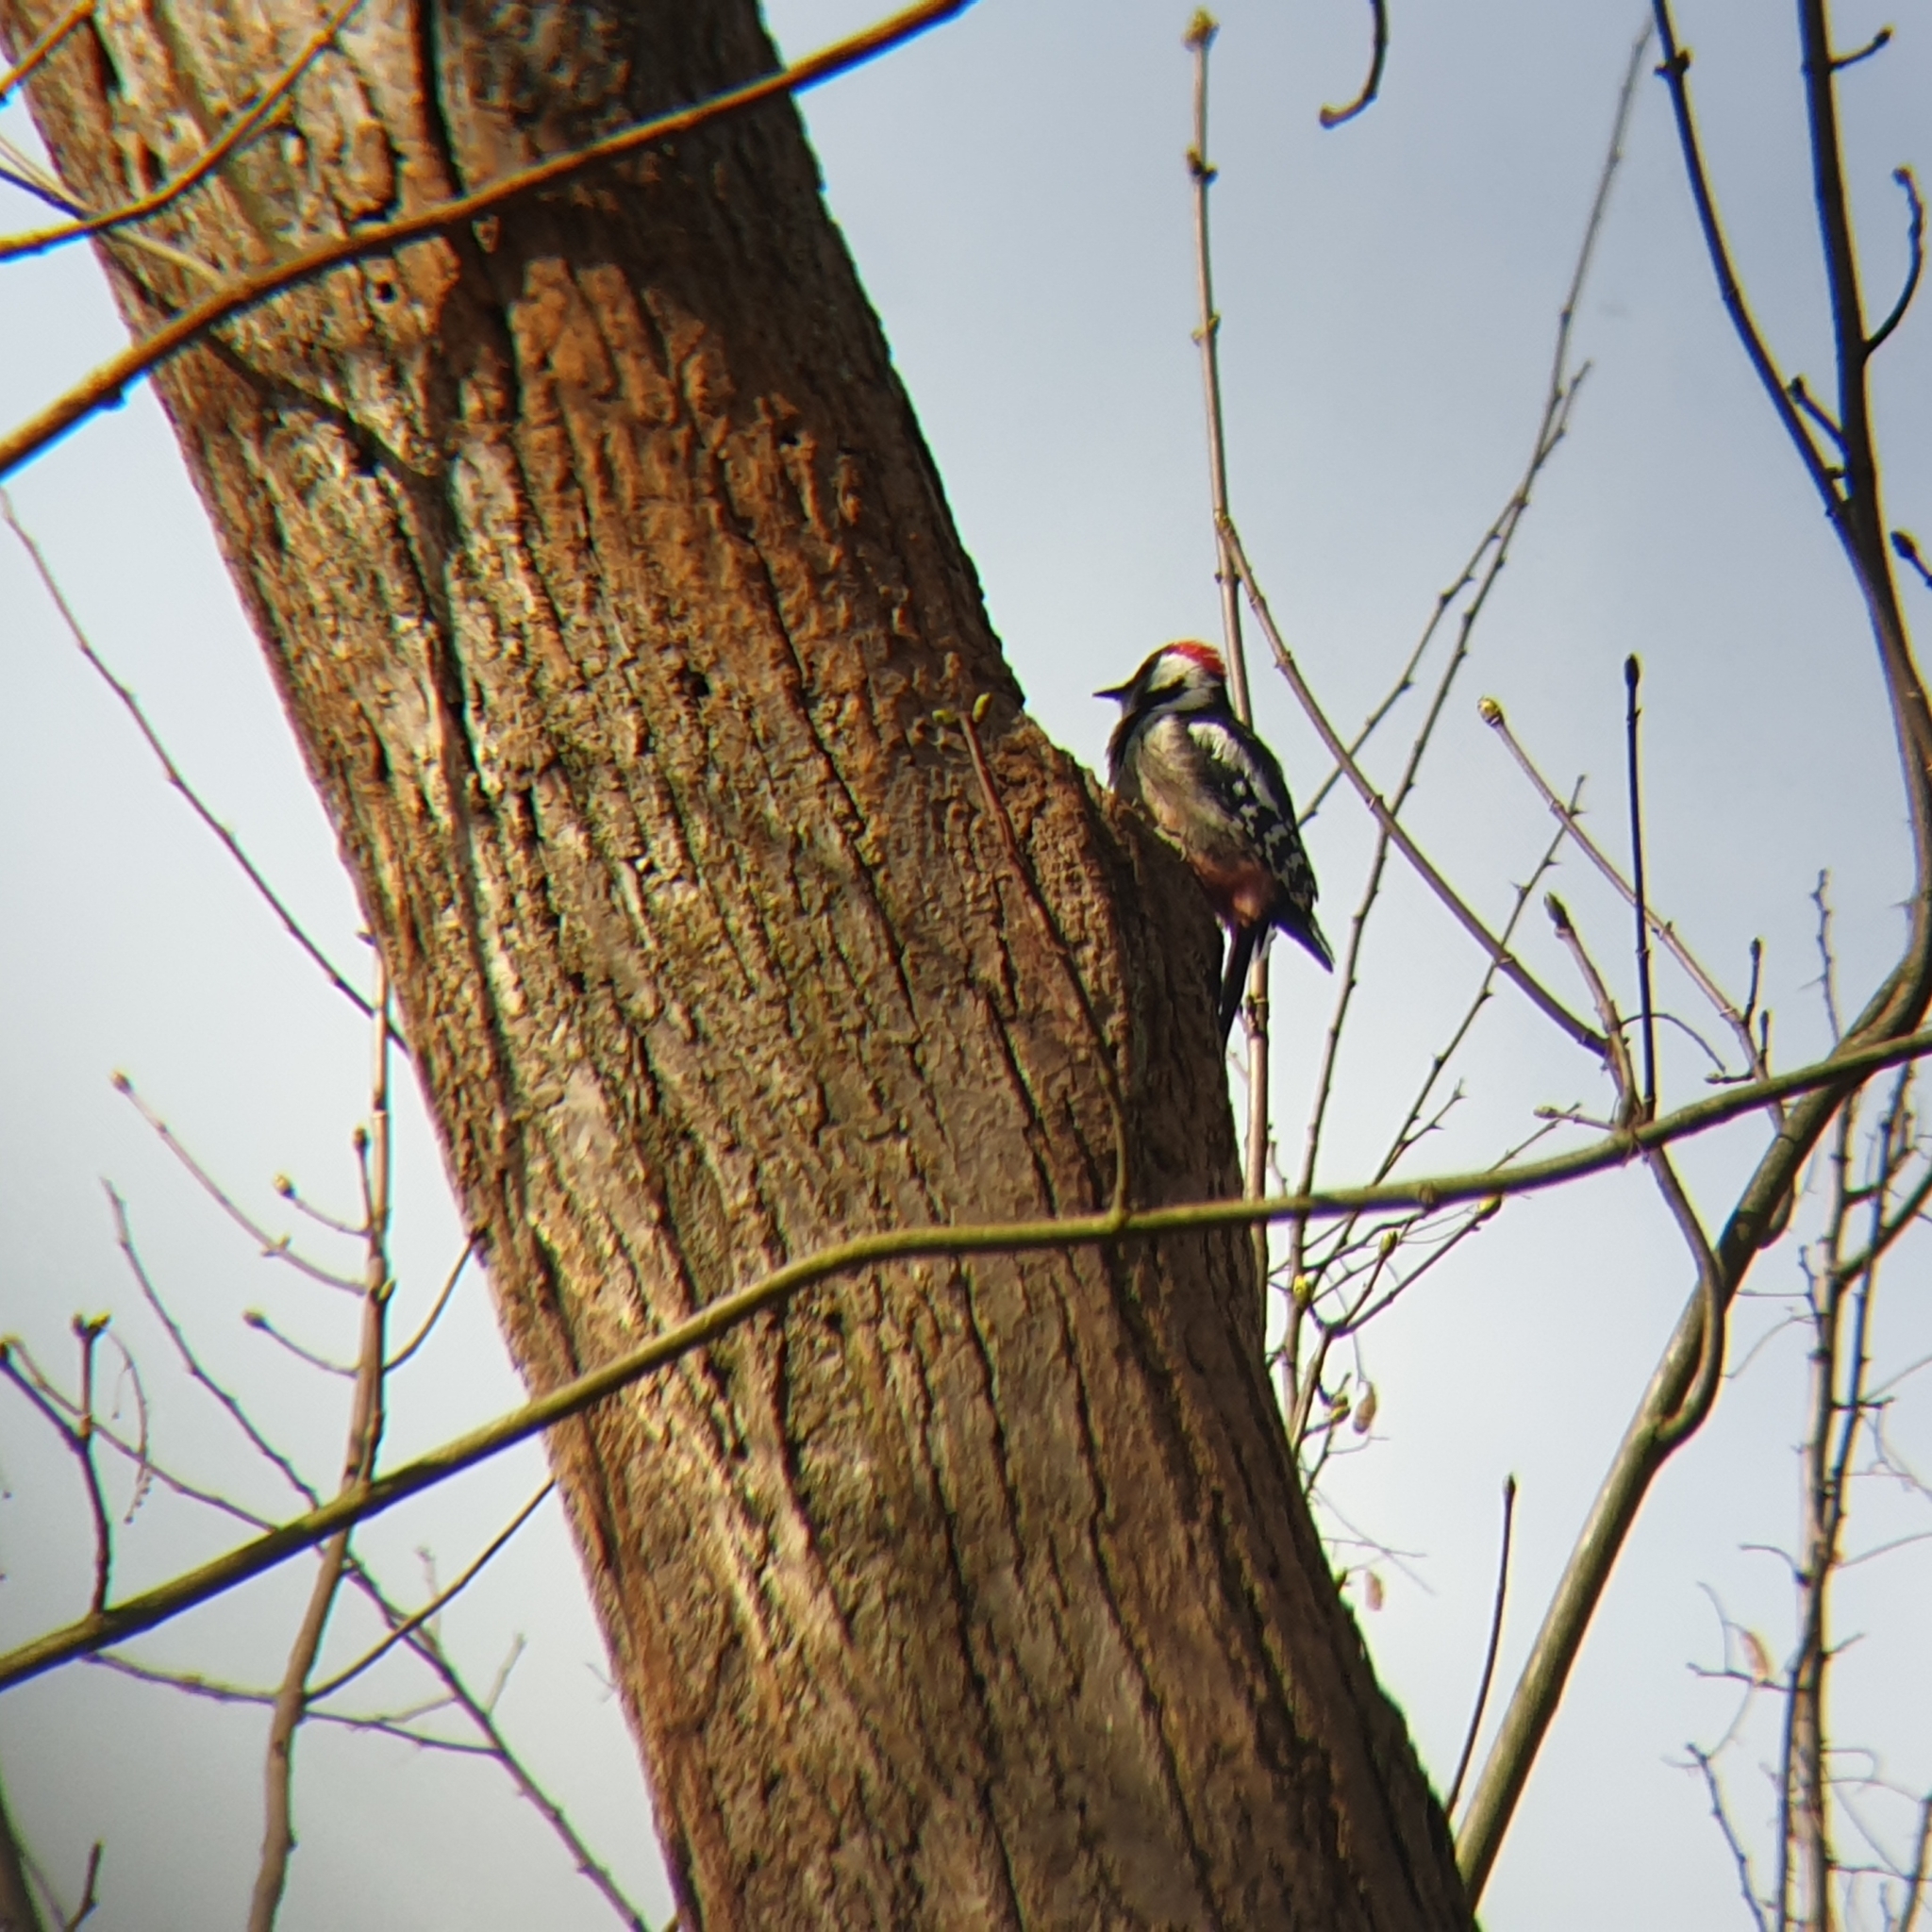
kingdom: Animalia
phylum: Chordata
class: Aves
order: Piciformes
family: Picidae
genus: Dendrocoptes
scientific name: Dendrocoptes medius
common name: Middle spotted woodpecker
